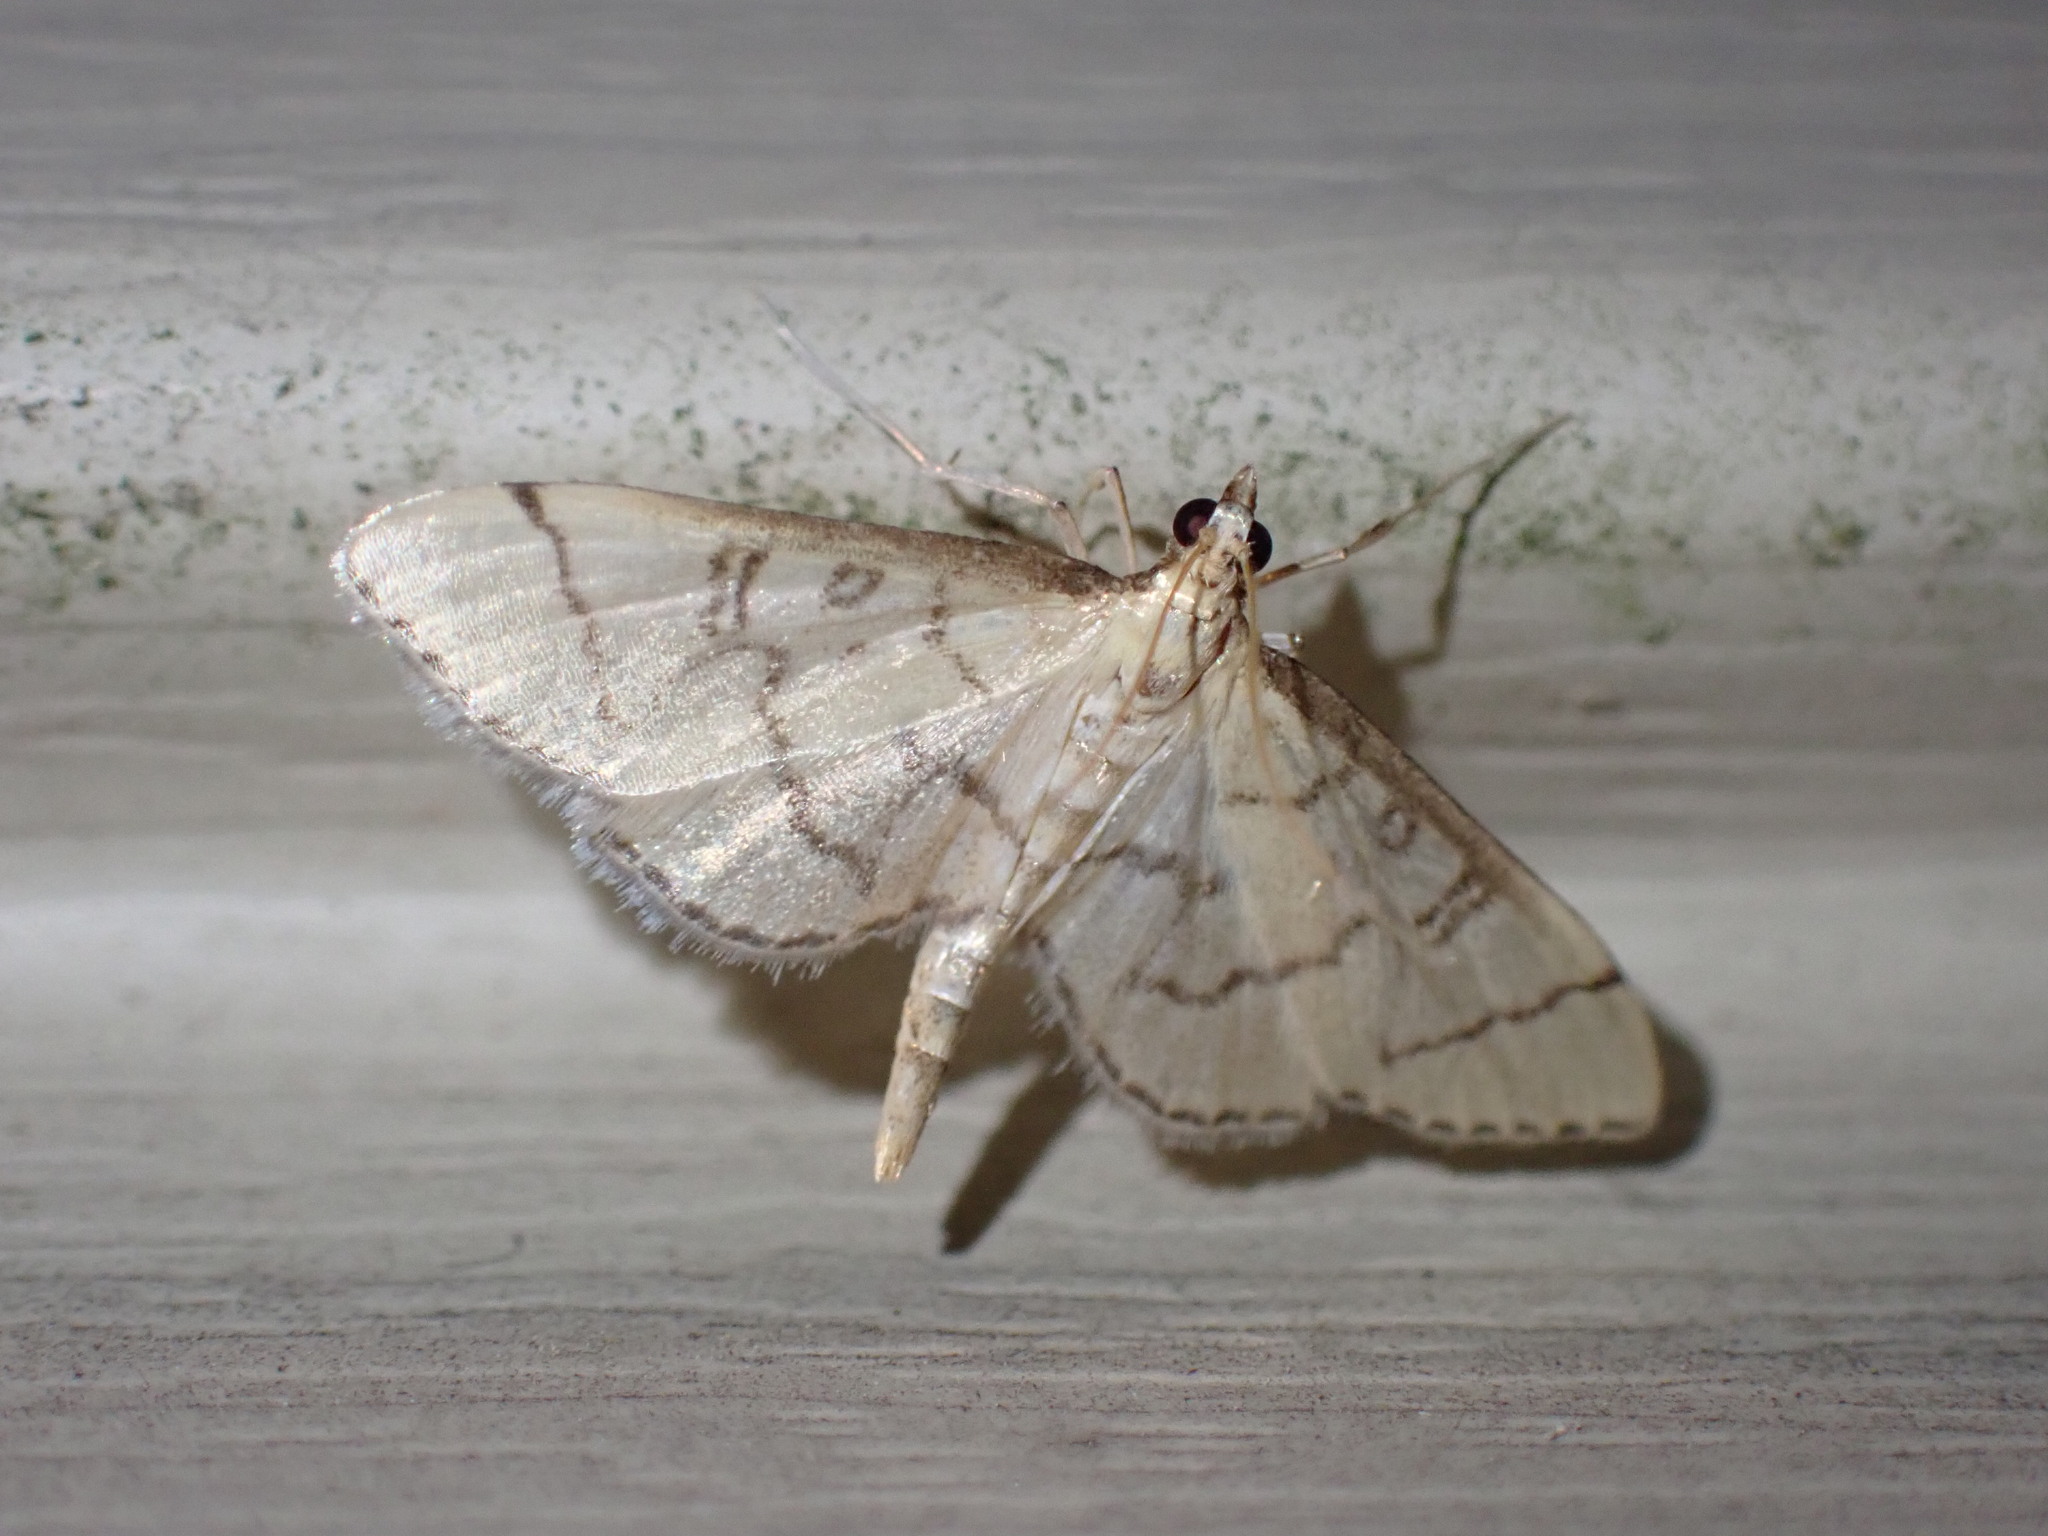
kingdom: Animalia
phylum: Arthropoda
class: Insecta
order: Lepidoptera
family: Crambidae
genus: Lamprosema
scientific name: Lamprosema Blepharomastix ranalis
